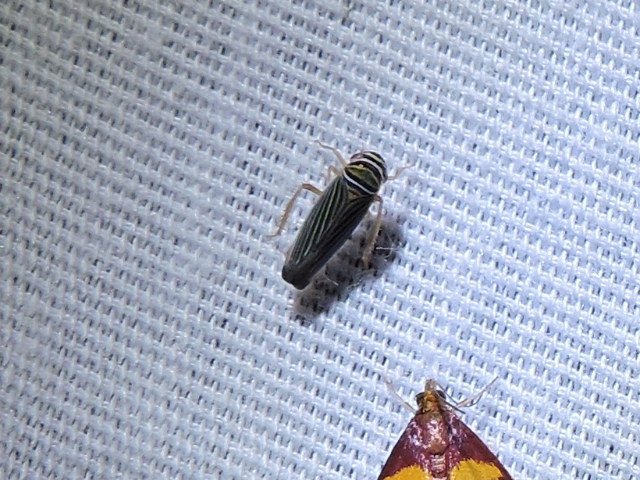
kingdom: Animalia
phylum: Arthropoda
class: Insecta
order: Hemiptera
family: Cicadellidae
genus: Tylozygus
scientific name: Tylozygus bifidus
